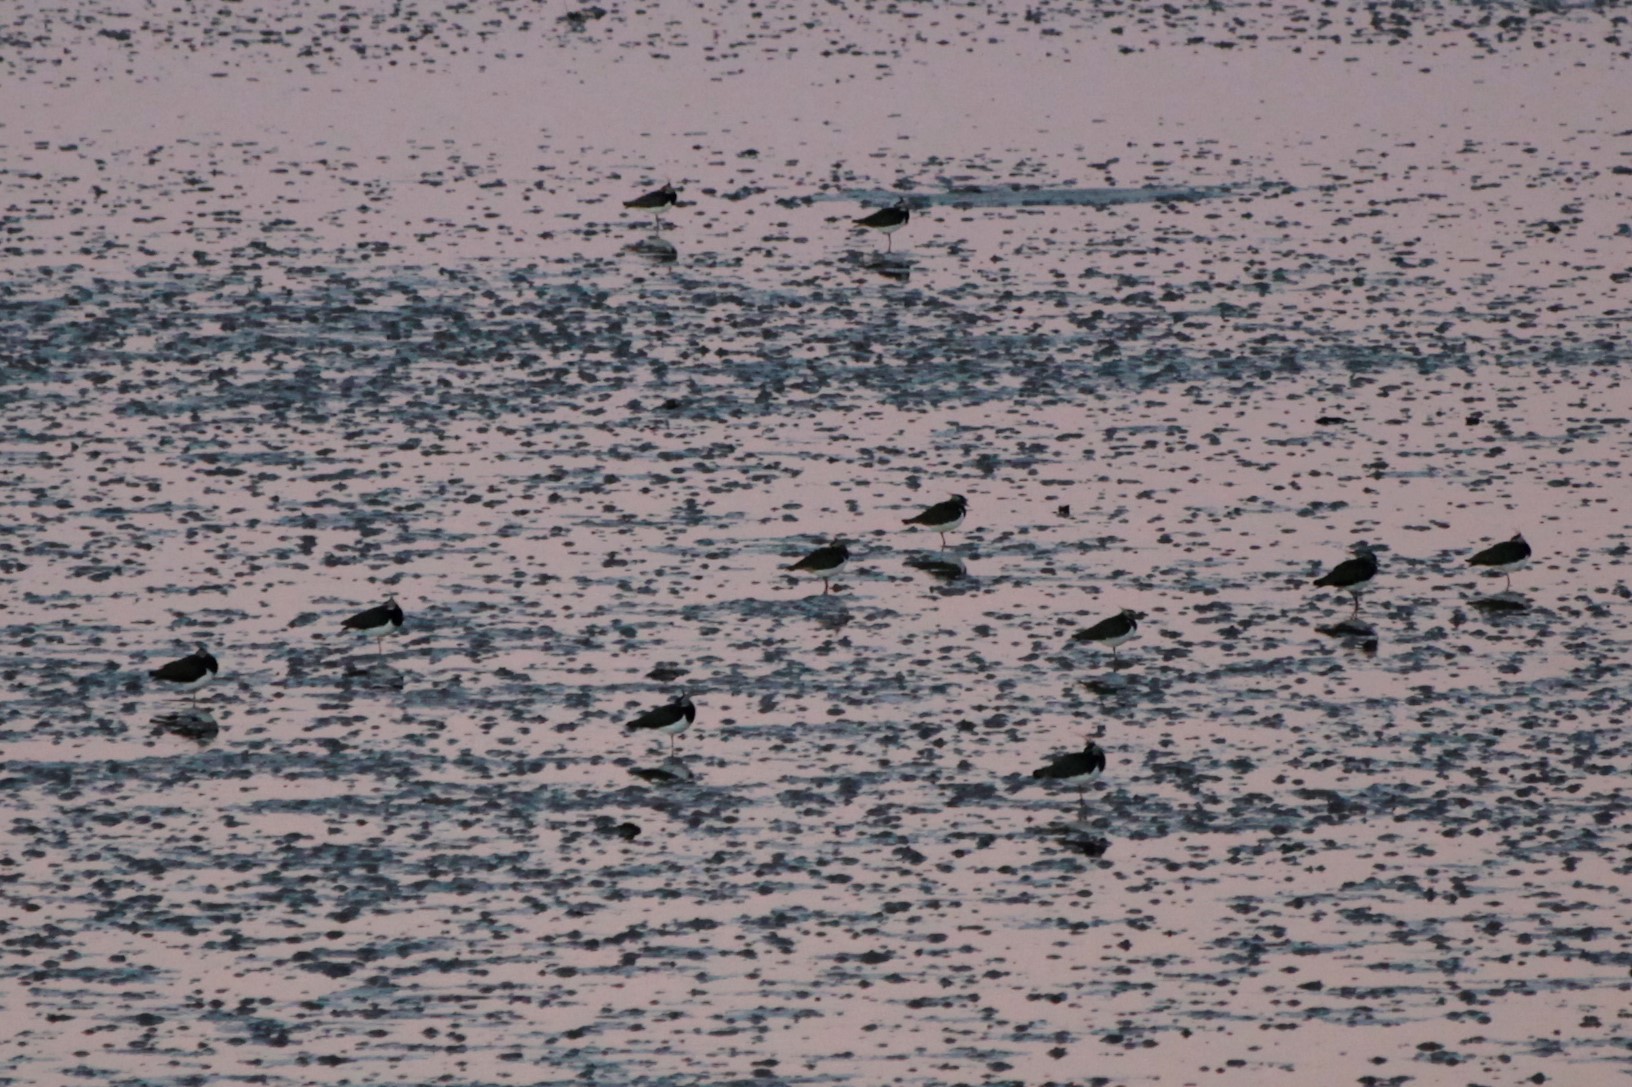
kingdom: Animalia
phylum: Chordata
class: Aves
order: Charadriiformes
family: Charadriidae
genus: Vanellus
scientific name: Vanellus vanellus
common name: Northern lapwing
